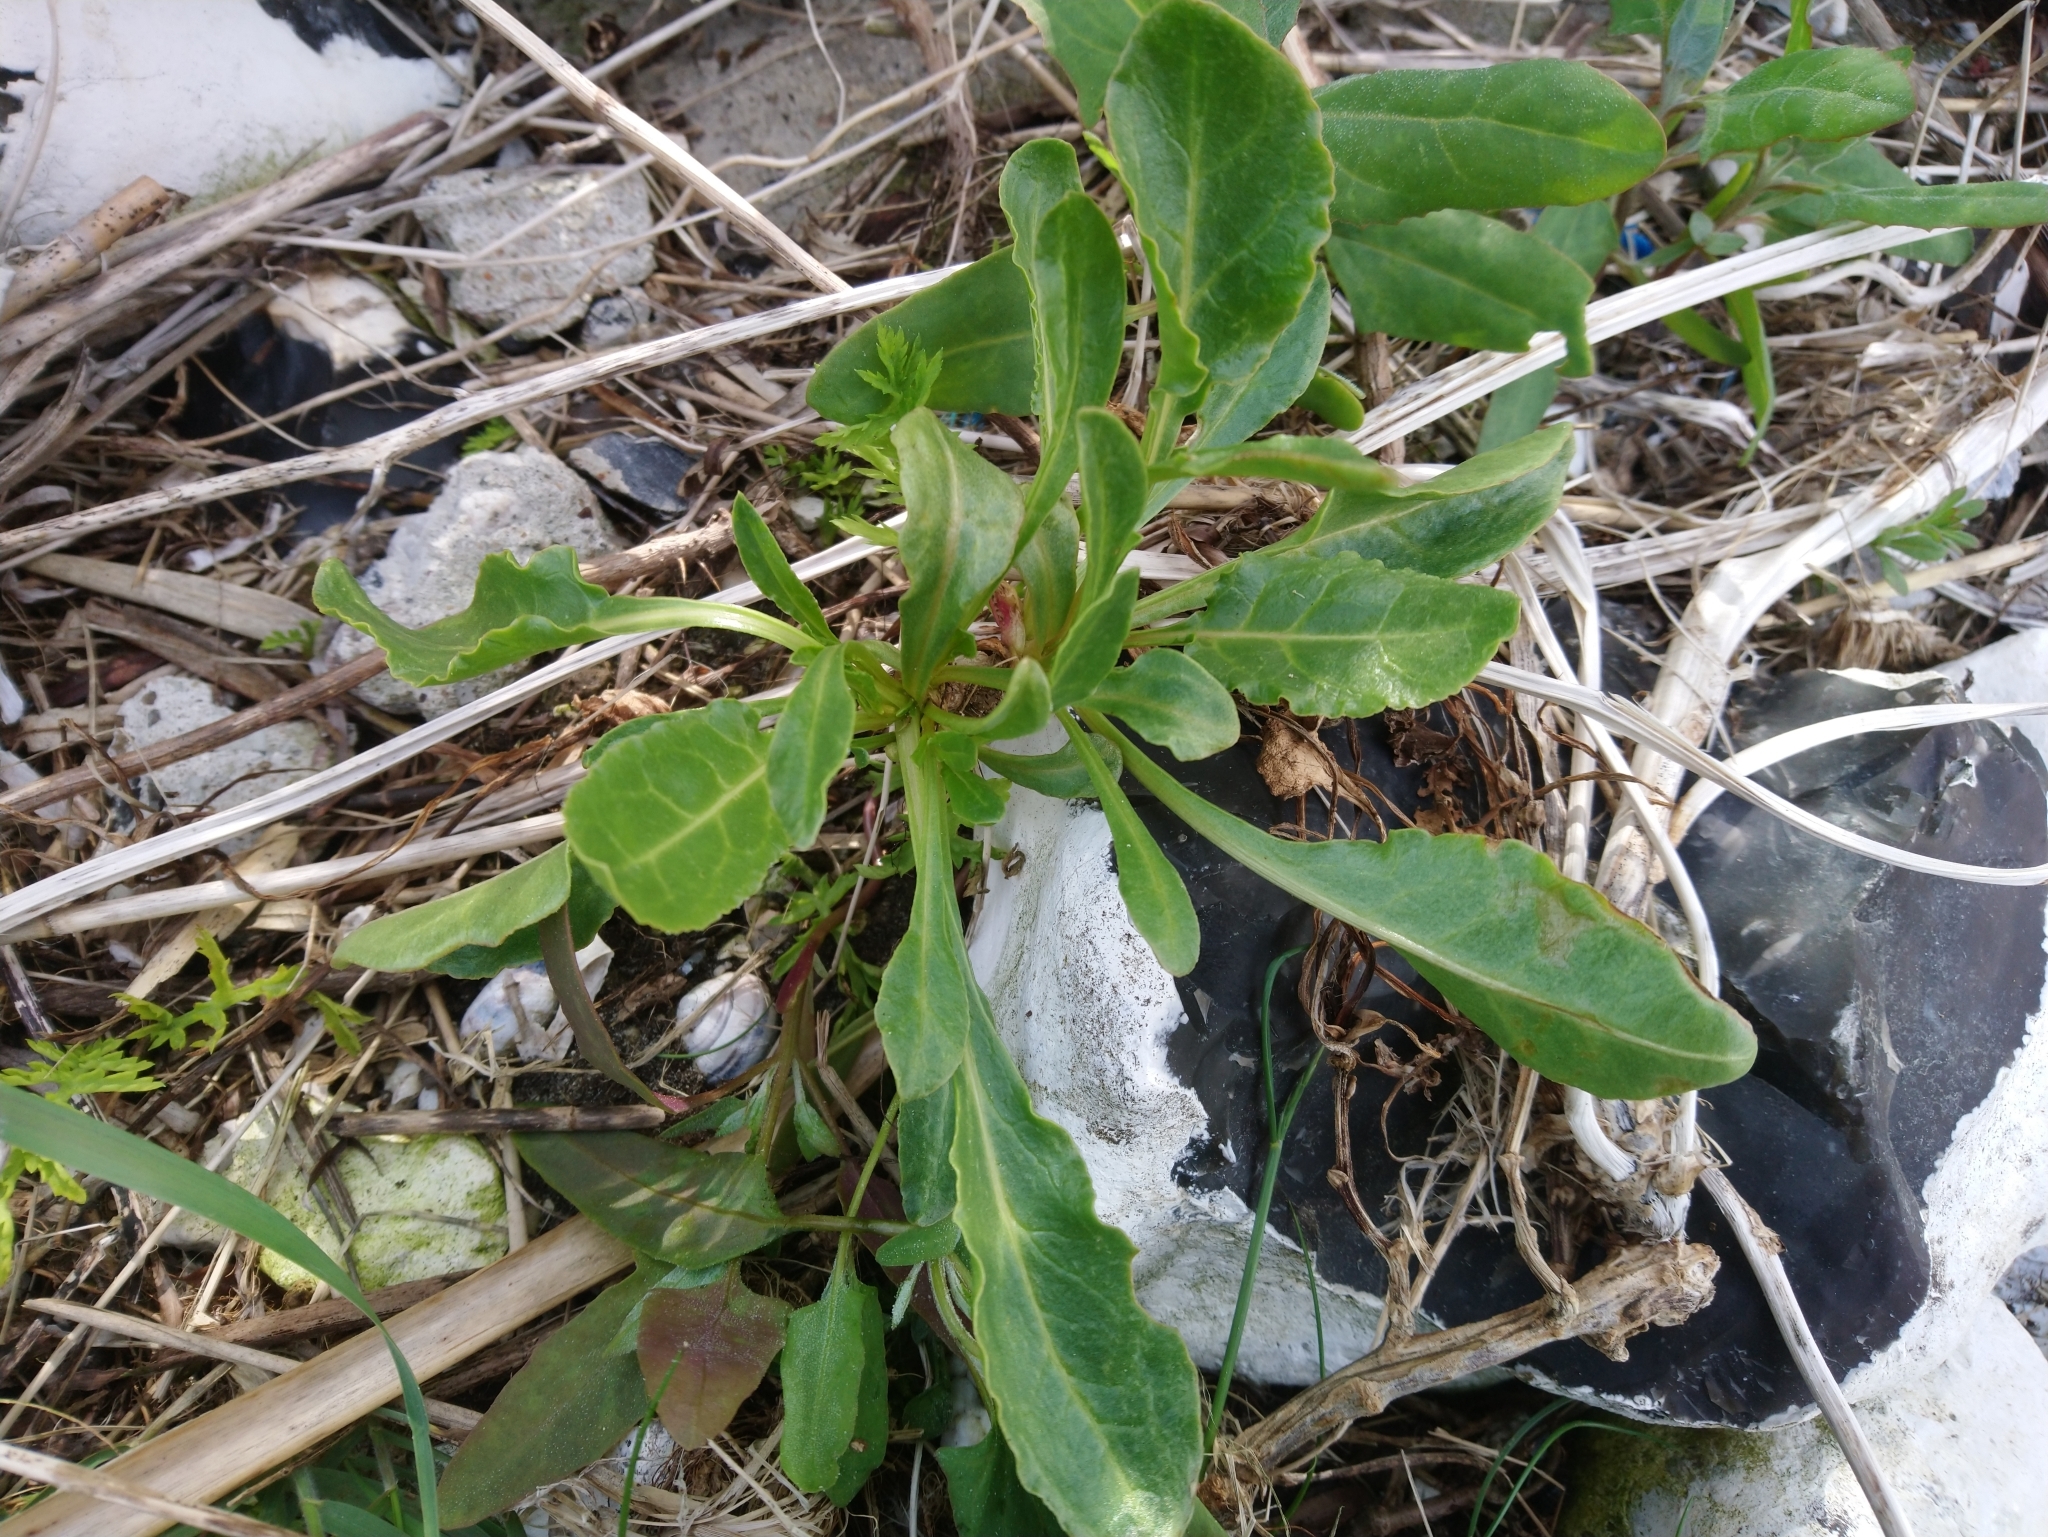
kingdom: Plantae
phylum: Tracheophyta
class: Magnoliopsida
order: Caryophyllales
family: Amaranthaceae
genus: Beta
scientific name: Beta vulgaris
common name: Beet
